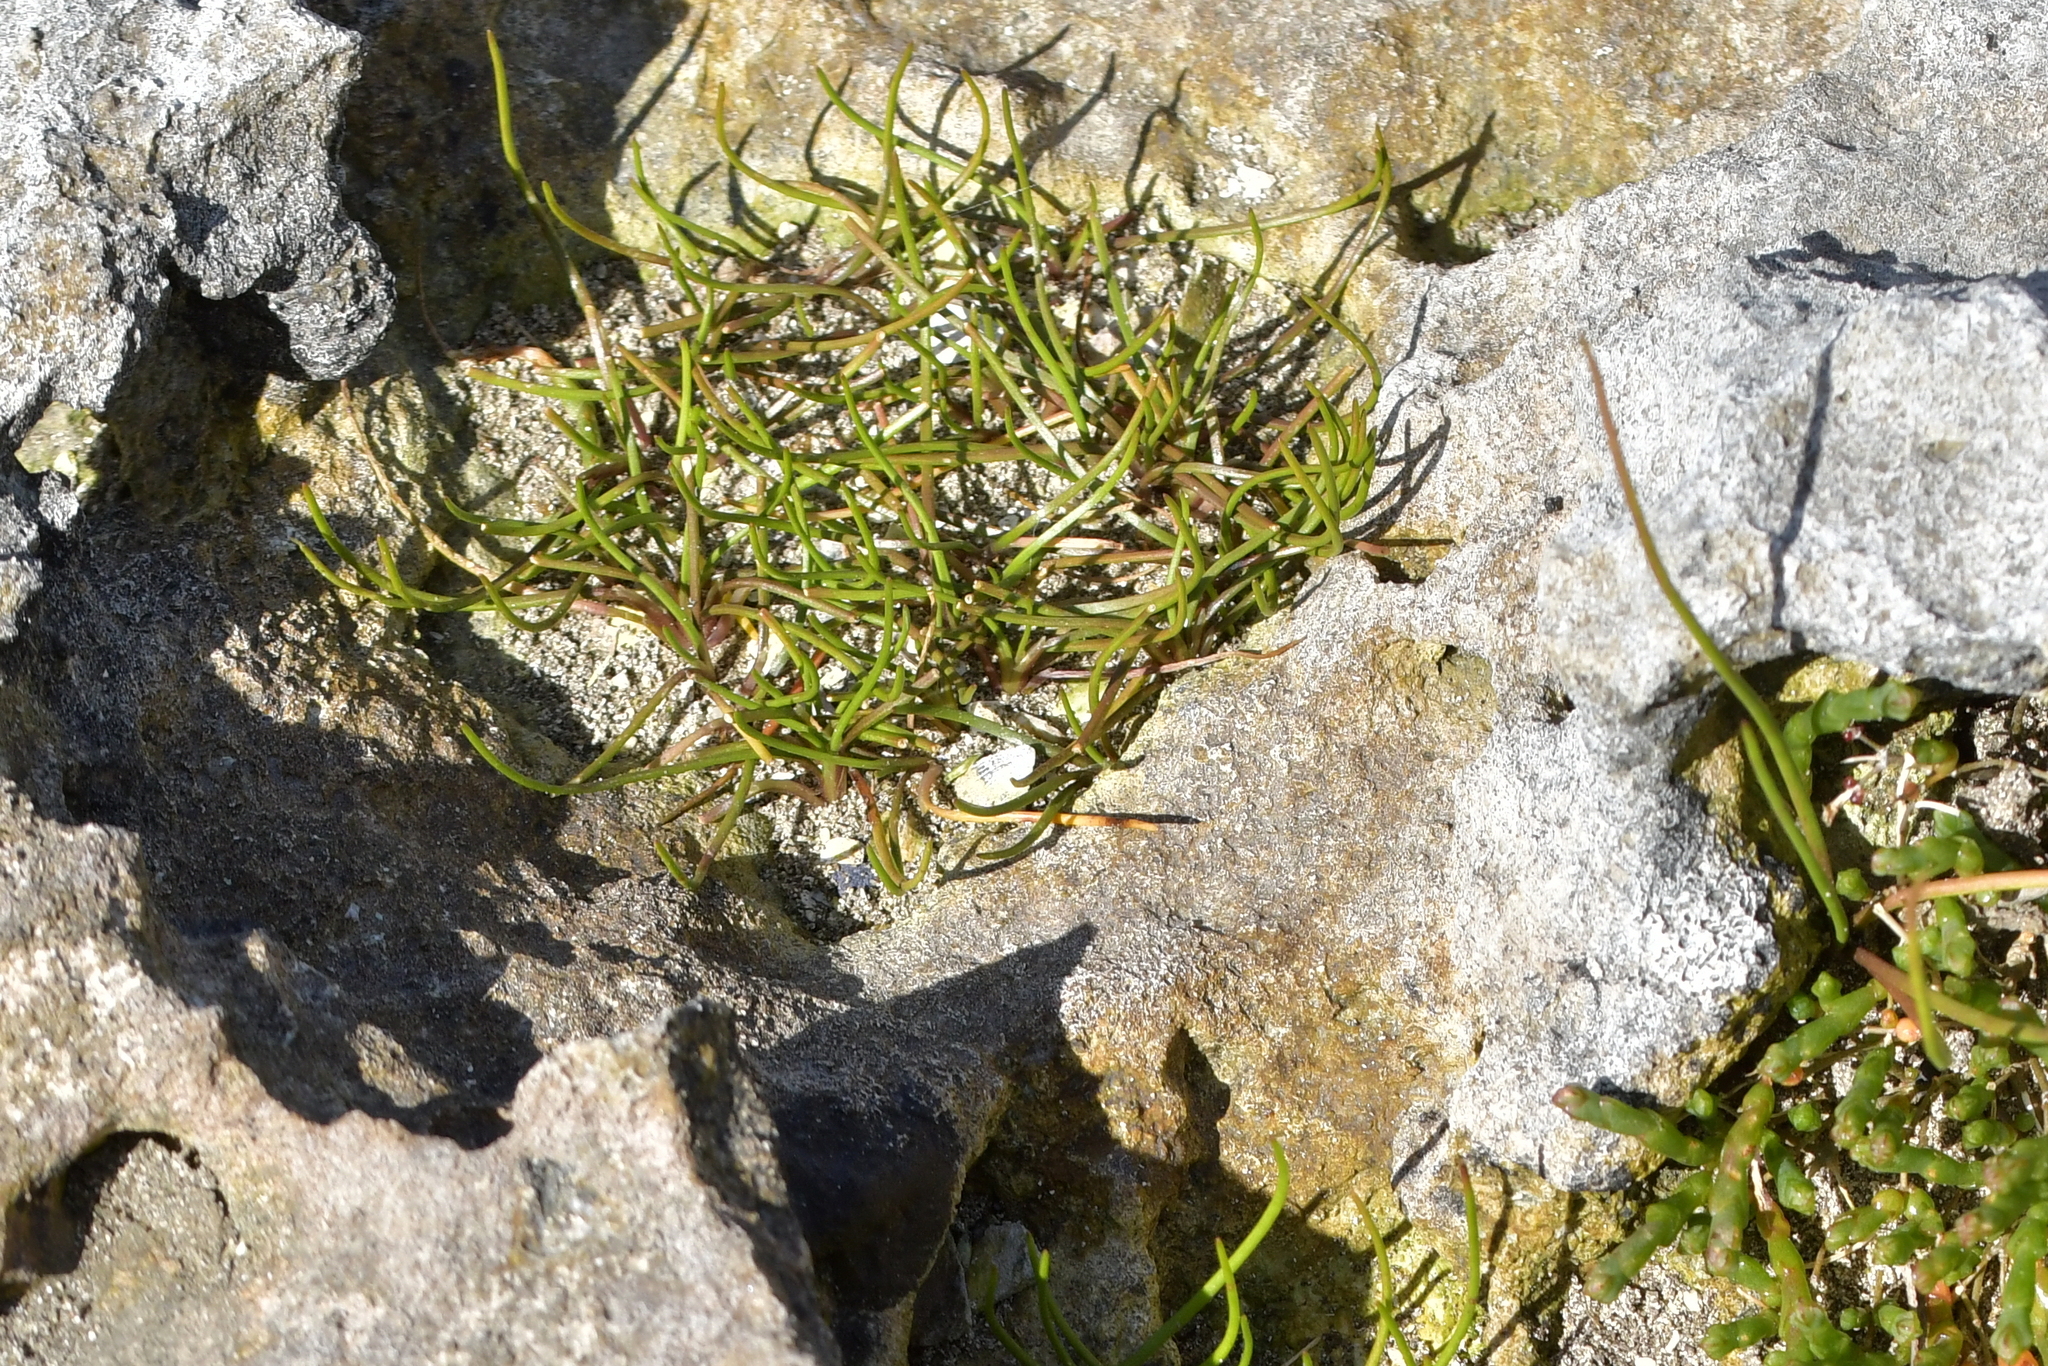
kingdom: Plantae
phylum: Tracheophyta
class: Liliopsida
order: Alismatales
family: Juncaginaceae
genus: Triglochin
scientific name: Triglochin striata
